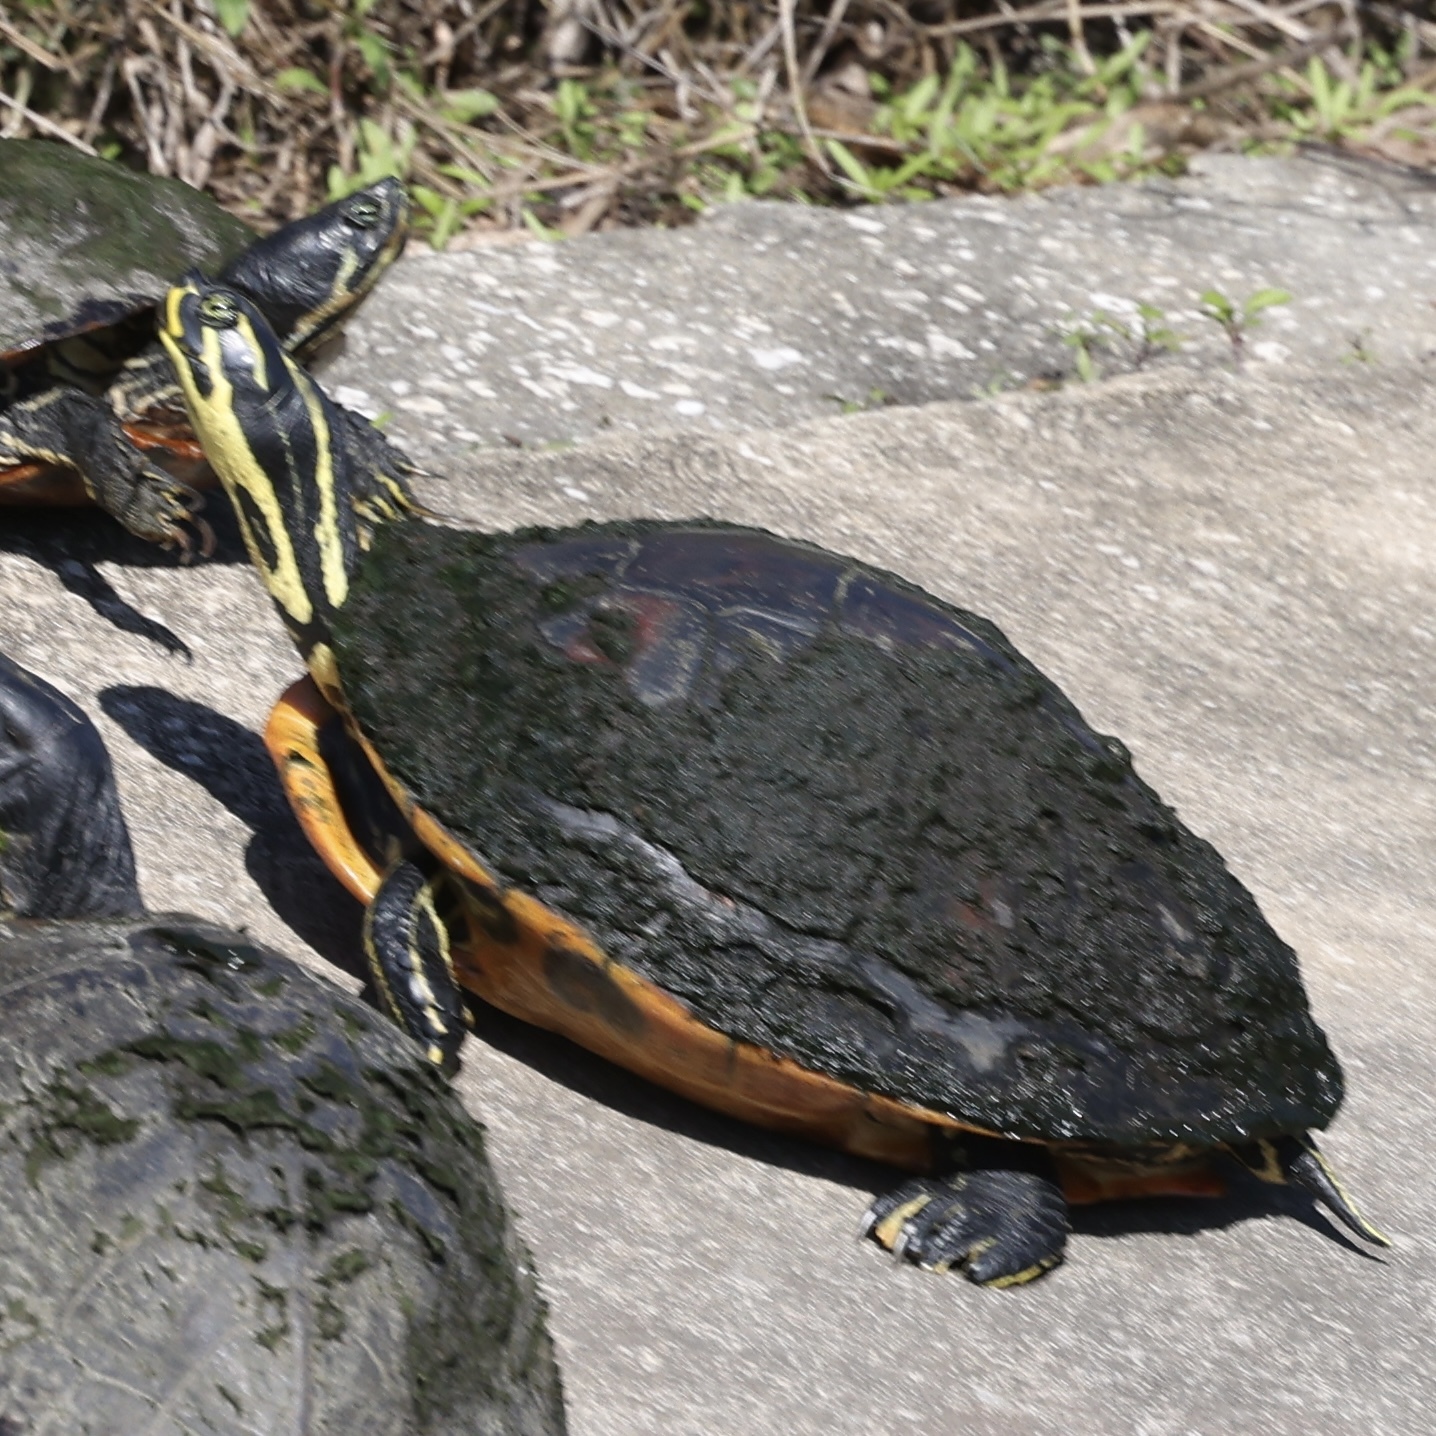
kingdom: Animalia
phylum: Chordata
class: Testudines
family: Emydidae
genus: Pseudemys
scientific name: Pseudemys nelsoni
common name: Florida red-bellied turtle
